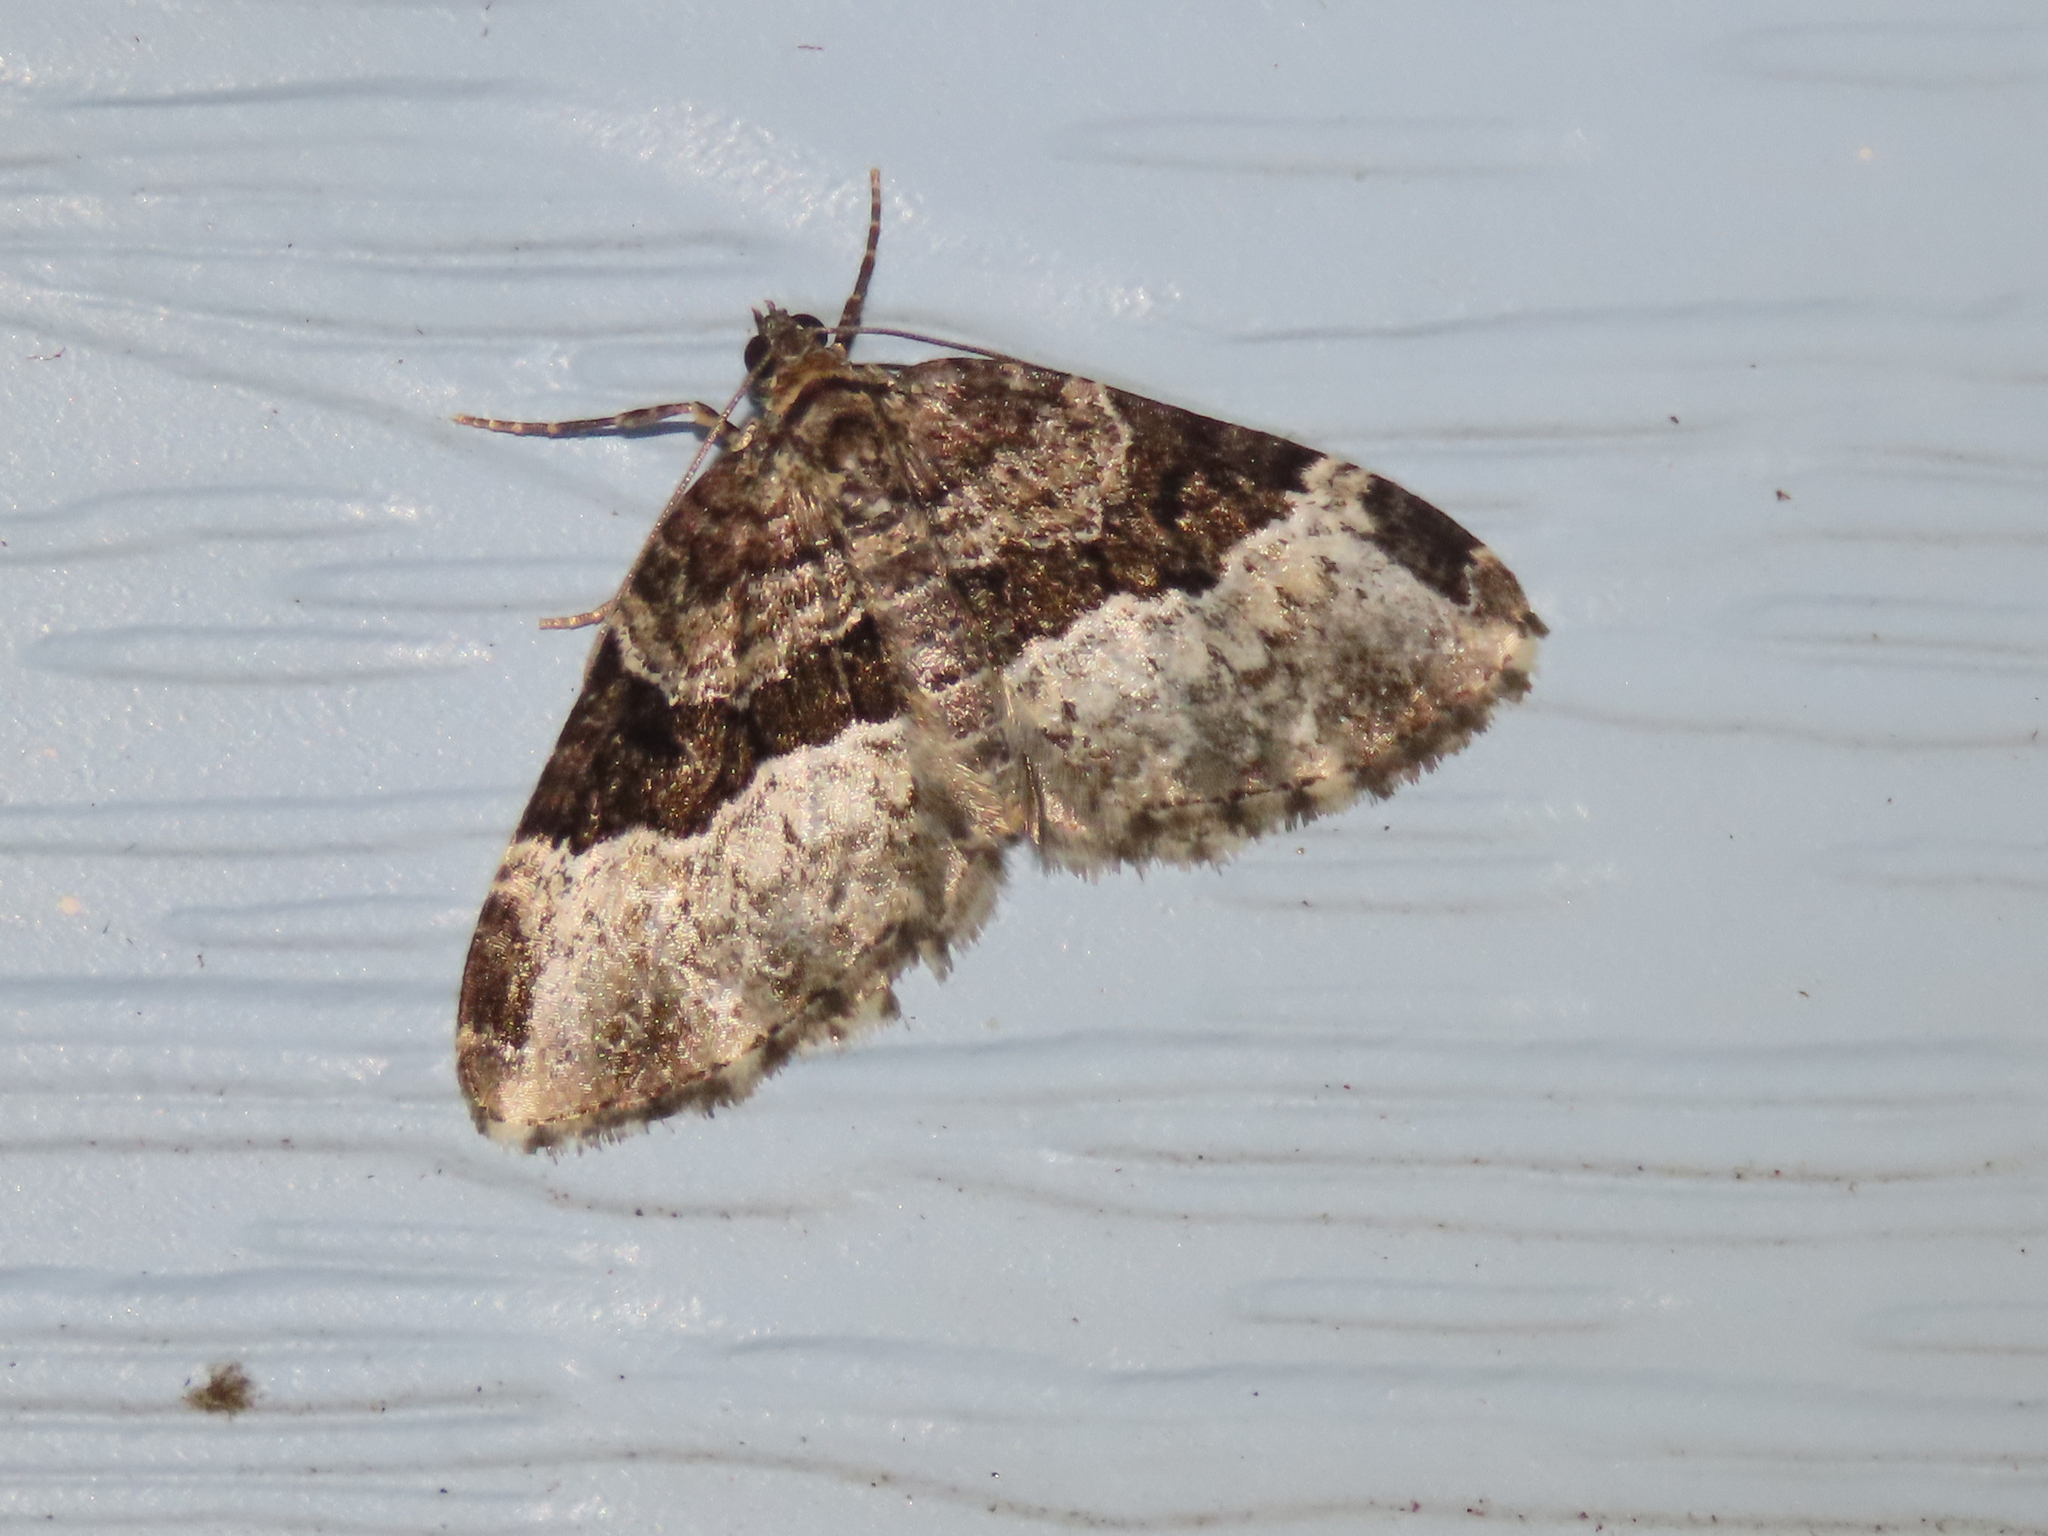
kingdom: Animalia
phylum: Arthropoda
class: Insecta
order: Lepidoptera
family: Geometridae
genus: Euphyia
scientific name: Euphyia intermediata
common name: Sharp-angled carpet
